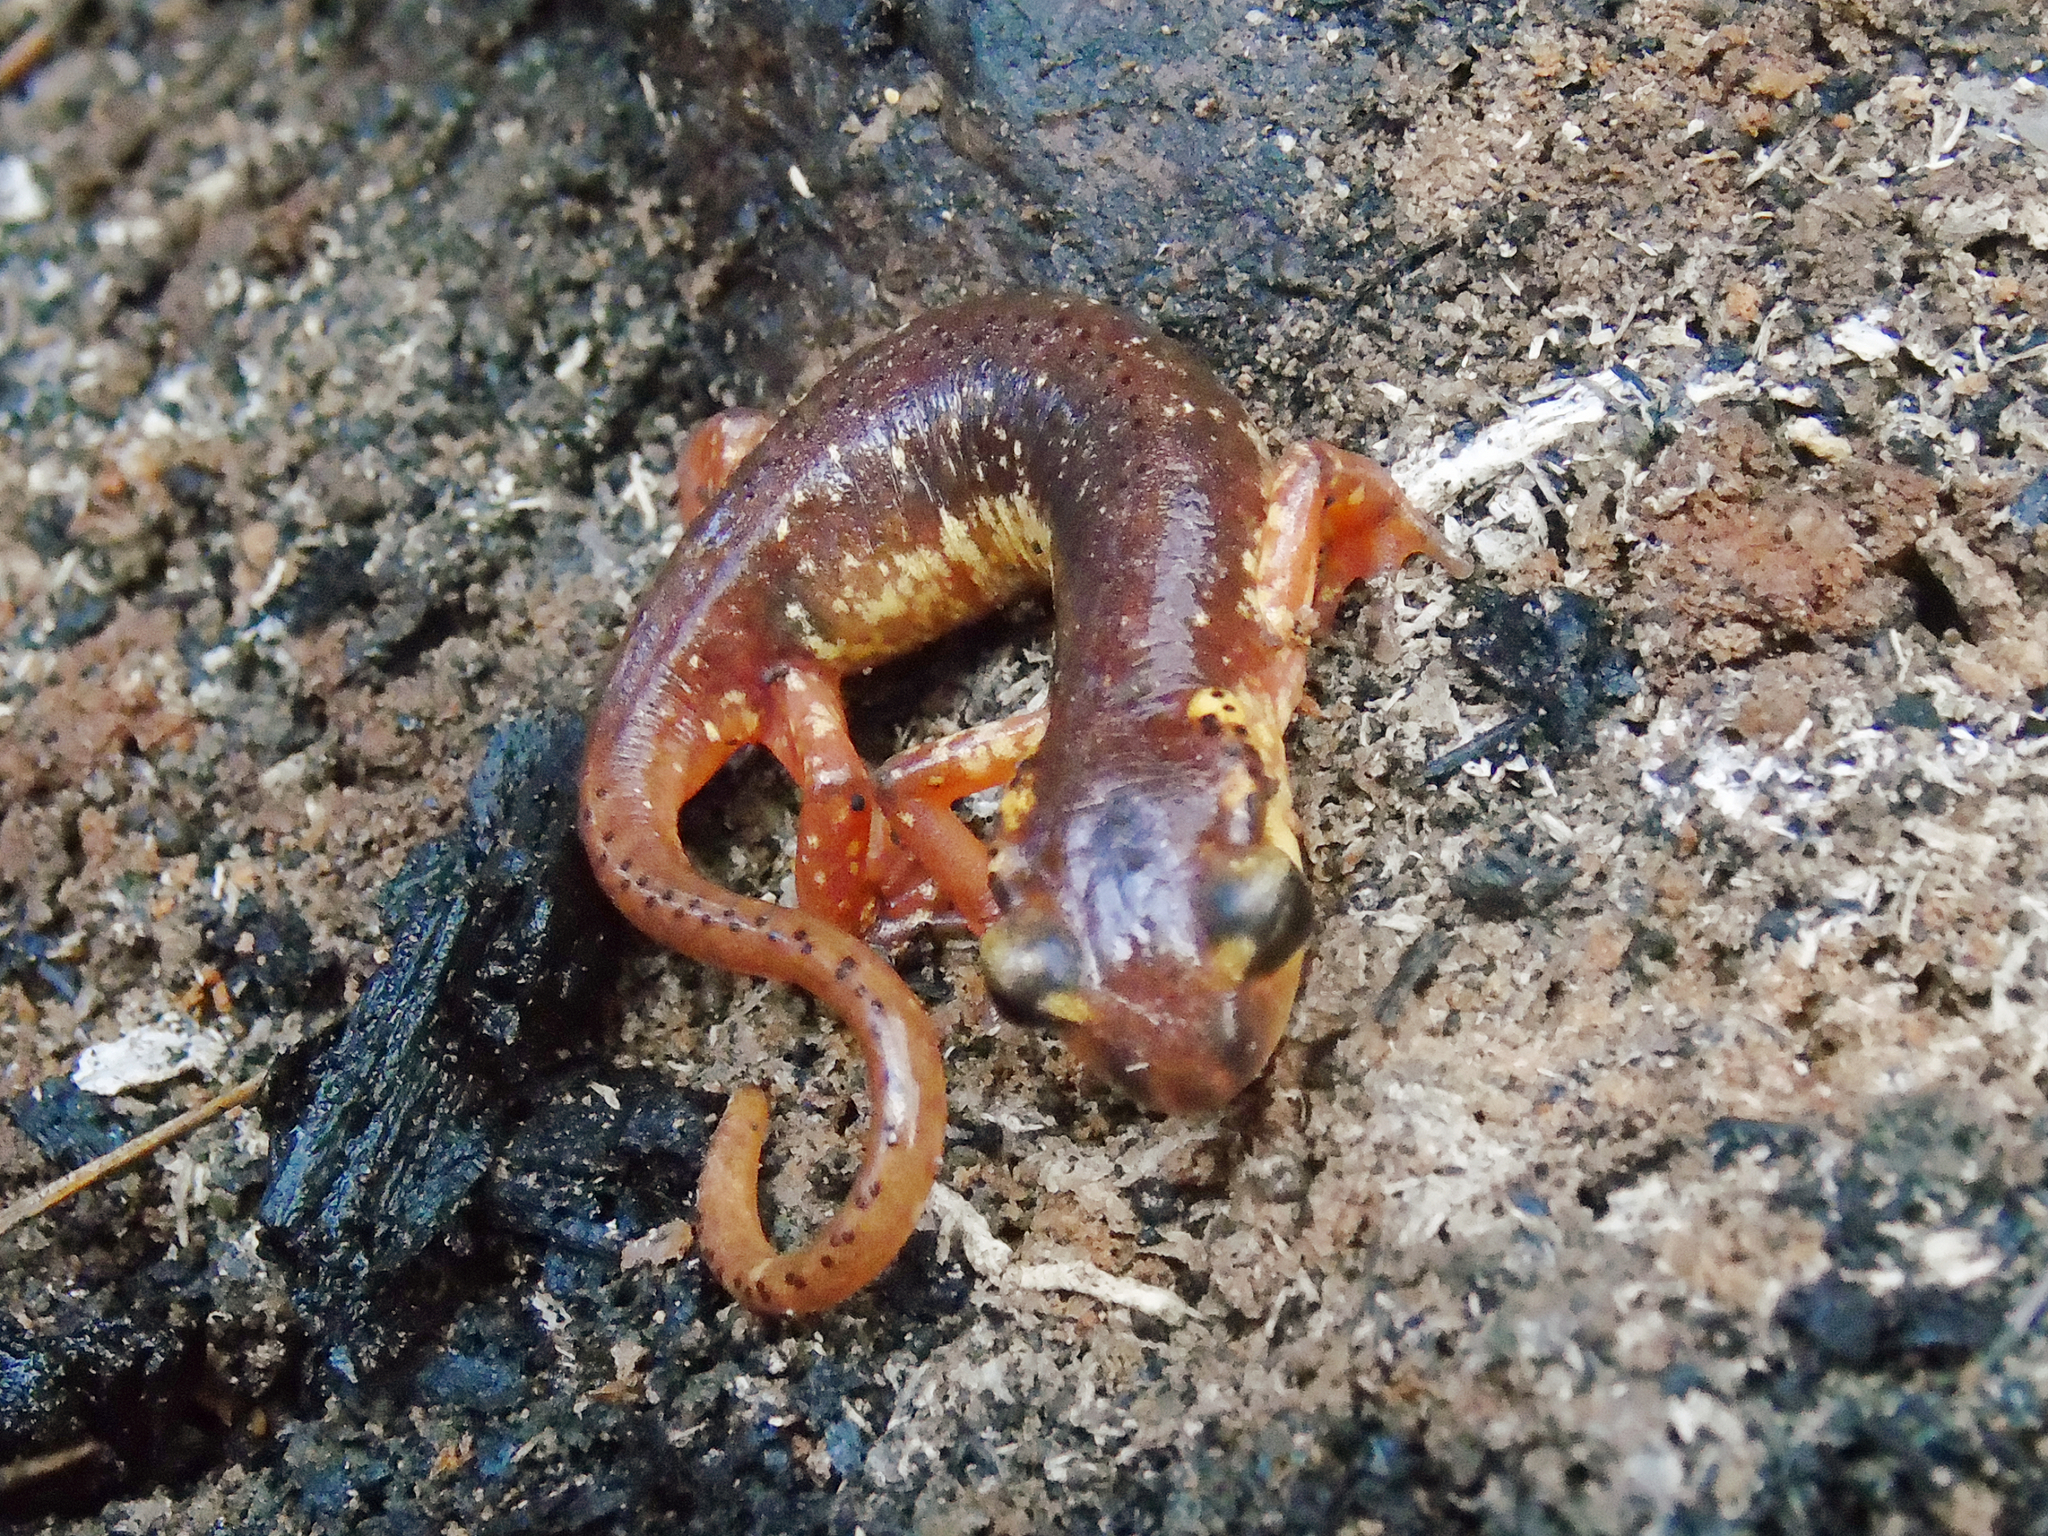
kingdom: Animalia
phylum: Chordata
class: Amphibia
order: Caudata
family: Salamandridae
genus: Lyciasalamandra
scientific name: Lyciasalamandra flavimembris
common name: Maramaris salamander
